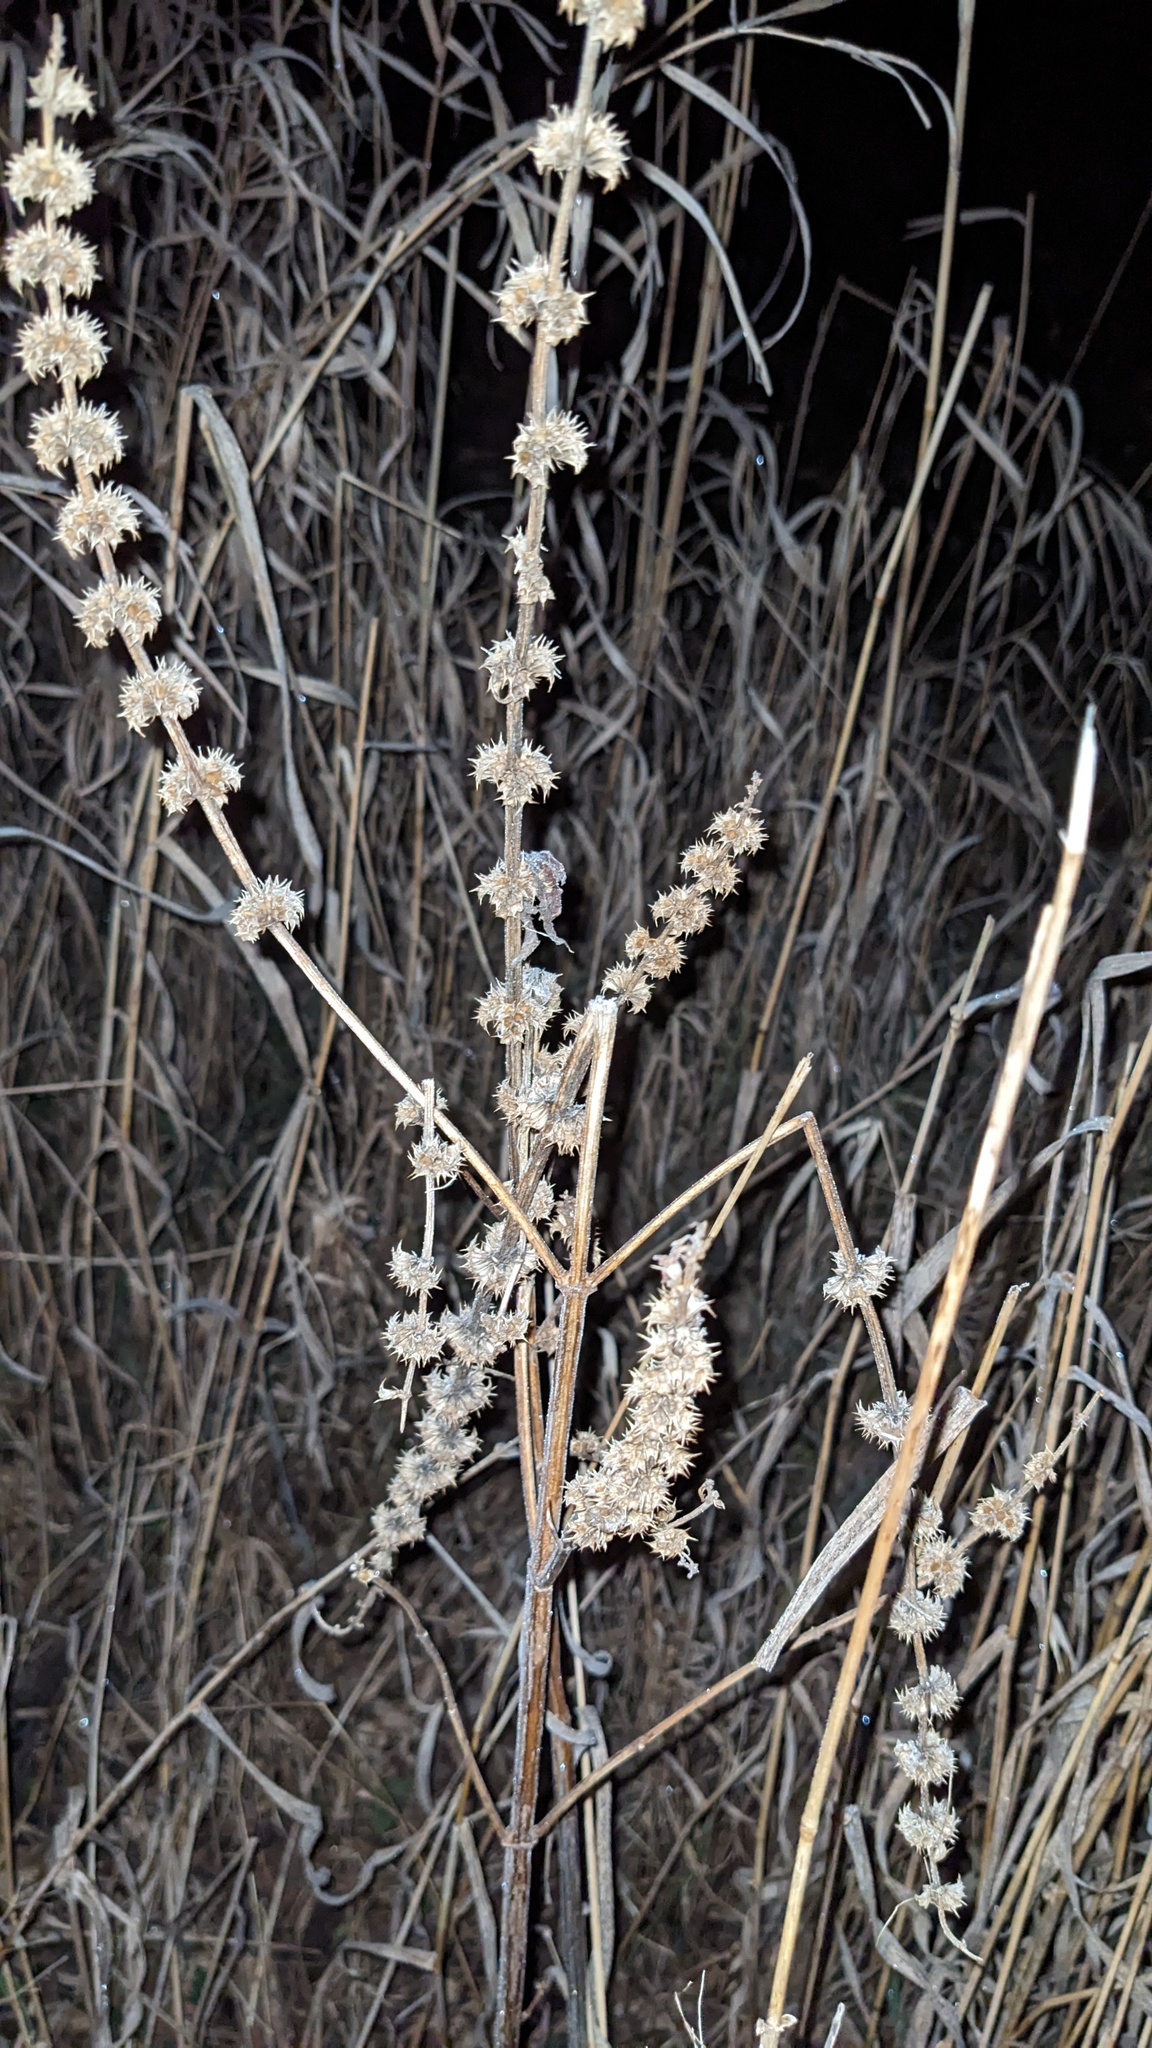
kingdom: Plantae
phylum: Tracheophyta
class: Magnoliopsida
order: Lamiales
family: Lamiaceae
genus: Leonurus
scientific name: Leonurus cardiaca
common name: Motherwort
